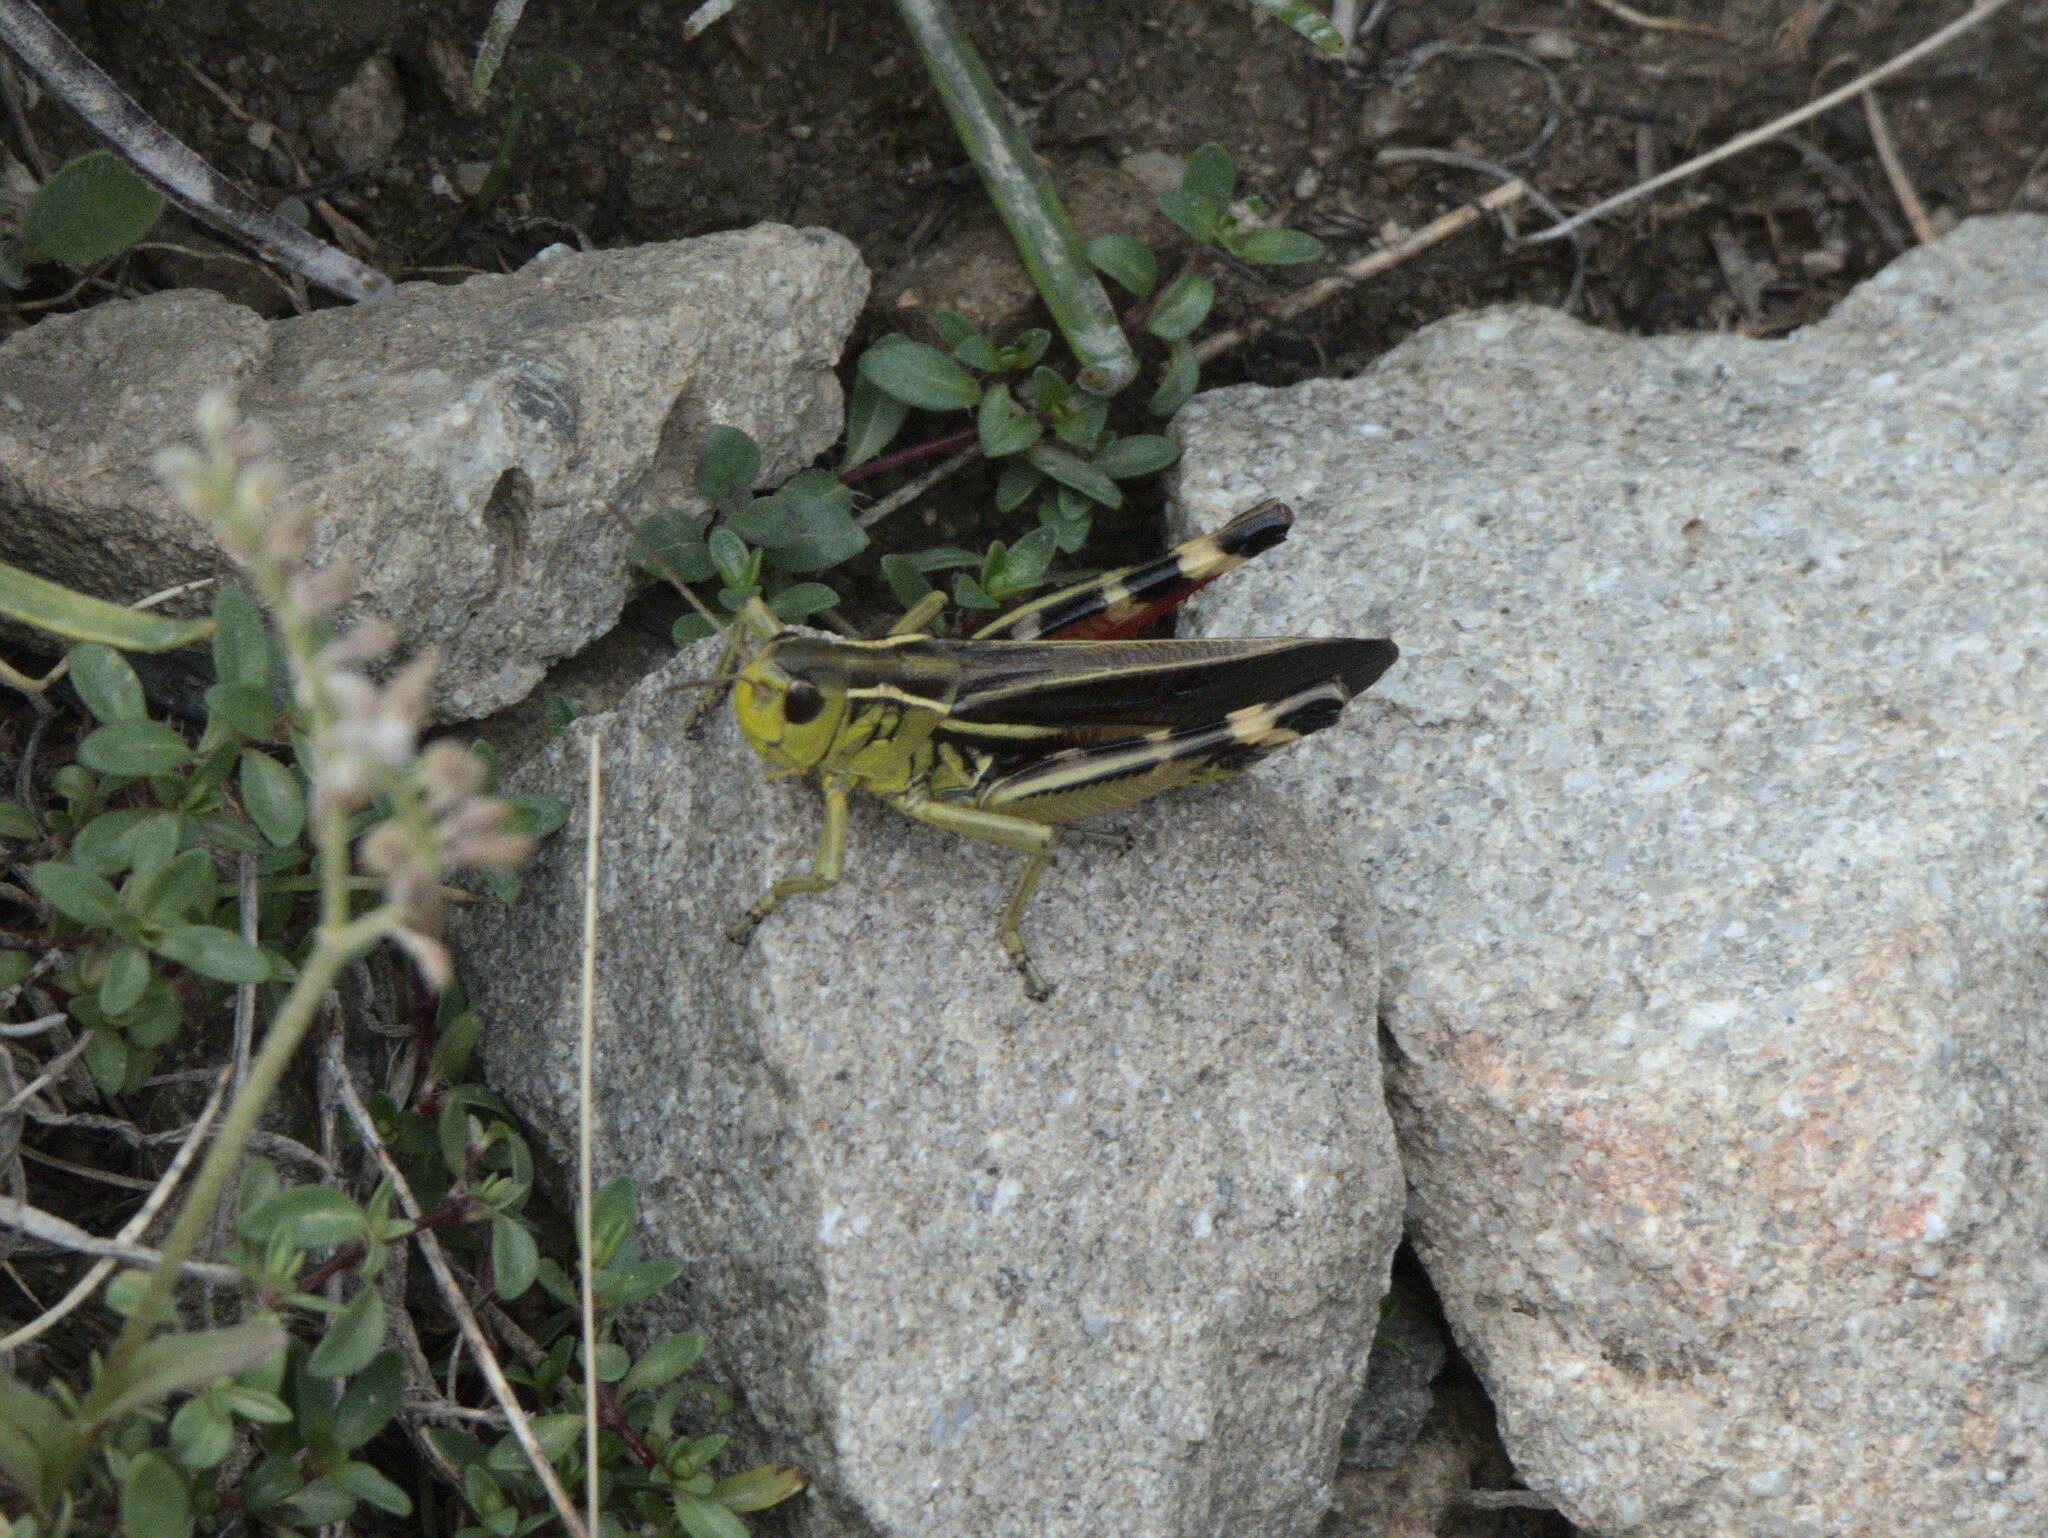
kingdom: Animalia
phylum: Arthropoda
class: Insecta
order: Orthoptera
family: Acrididae
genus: Arcyptera
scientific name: Arcyptera fusca
